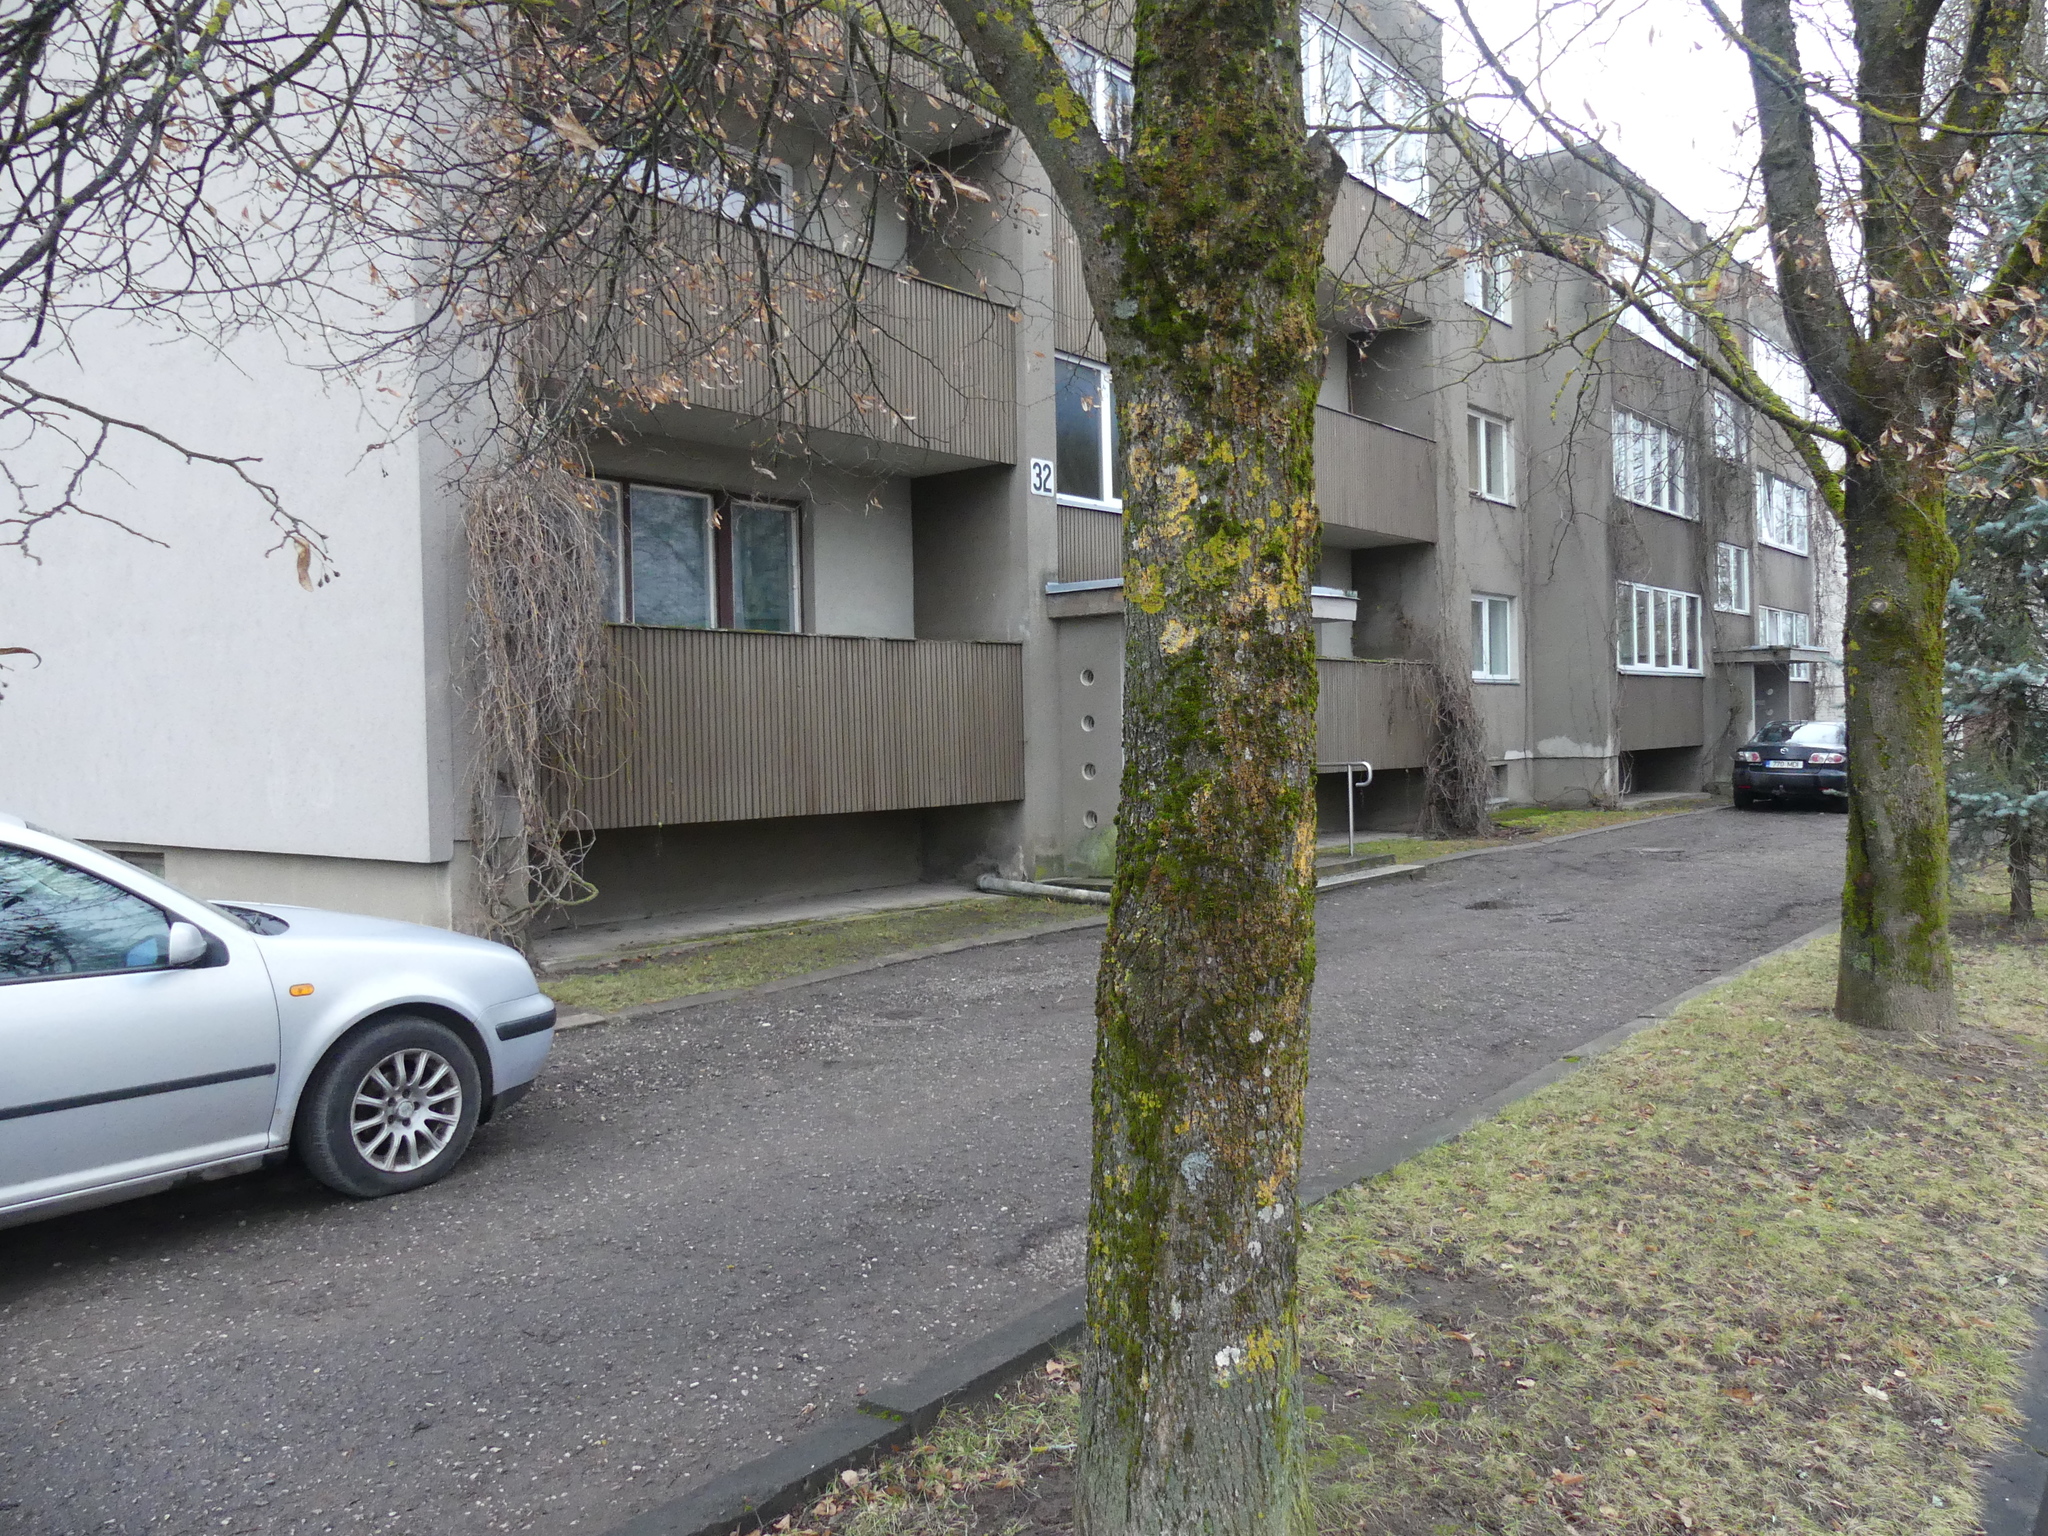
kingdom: Fungi
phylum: Ascomycota
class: Lecanoromycetes
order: Caliciales
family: Physciaceae
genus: Physconia
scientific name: Physconia distorta
